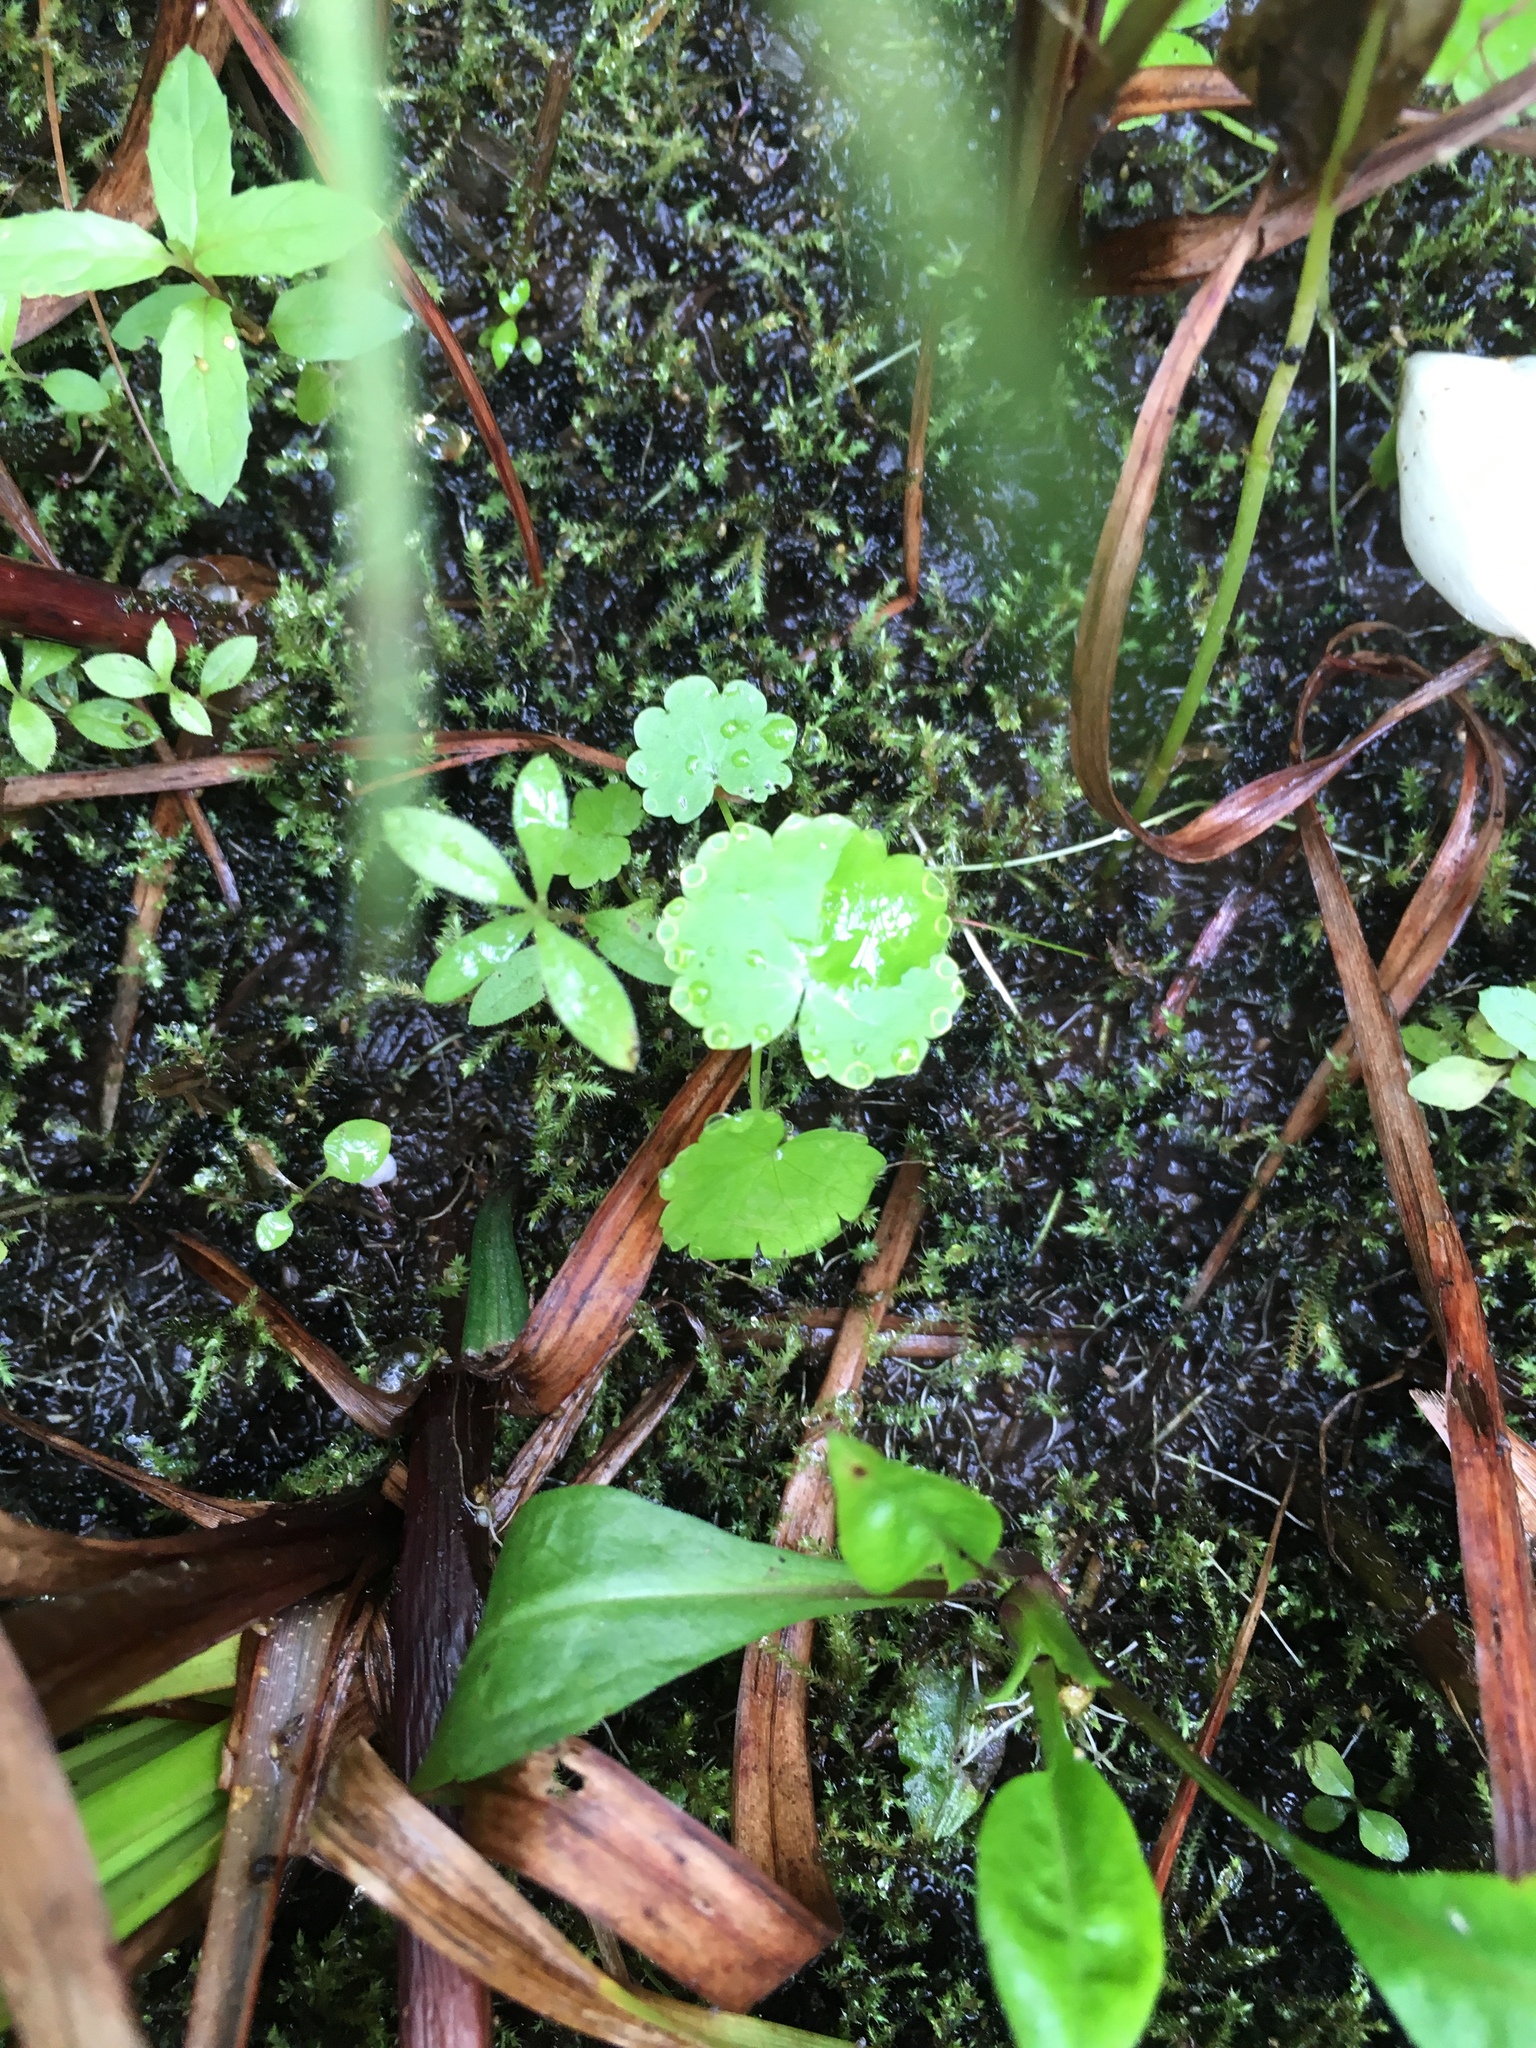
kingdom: Plantae
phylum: Tracheophyta
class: Magnoliopsida
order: Apiales
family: Araliaceae
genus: Hydrocotyle
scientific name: Hydrocotyle americana
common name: American water-pennywort
